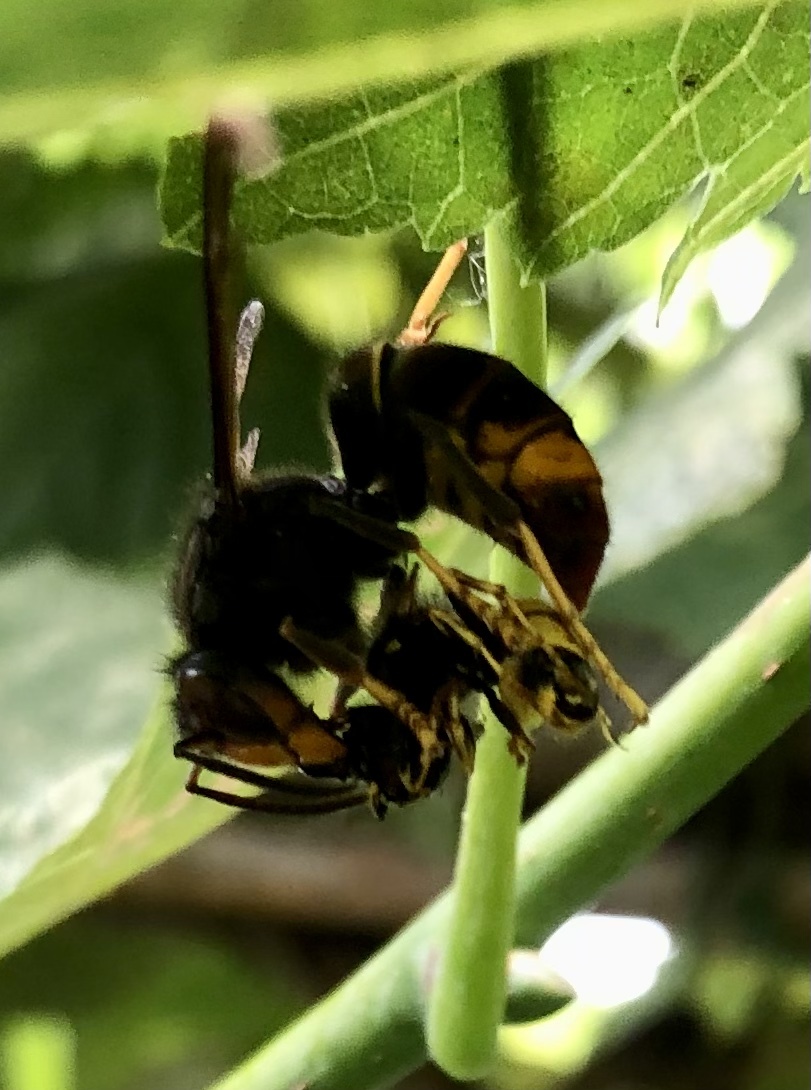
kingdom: Animalia
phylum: Arthropoda
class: Insecta
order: Hymenoptera
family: Vespidae
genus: Vespa
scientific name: Vespa velutina
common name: Asian hornet
